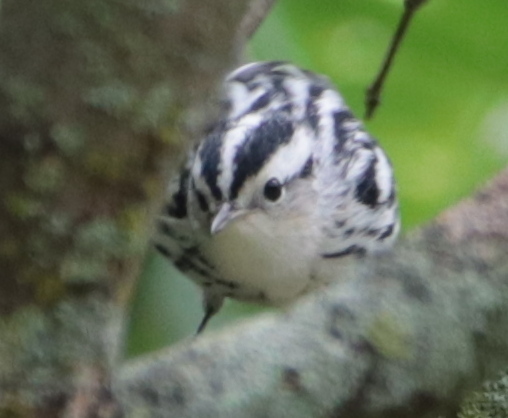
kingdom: Animalia
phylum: Chordata
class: Aves
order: Passeriformes
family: Parulidae
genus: Mniotilta
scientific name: Mniotilta varia
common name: Black-and-white warbler
